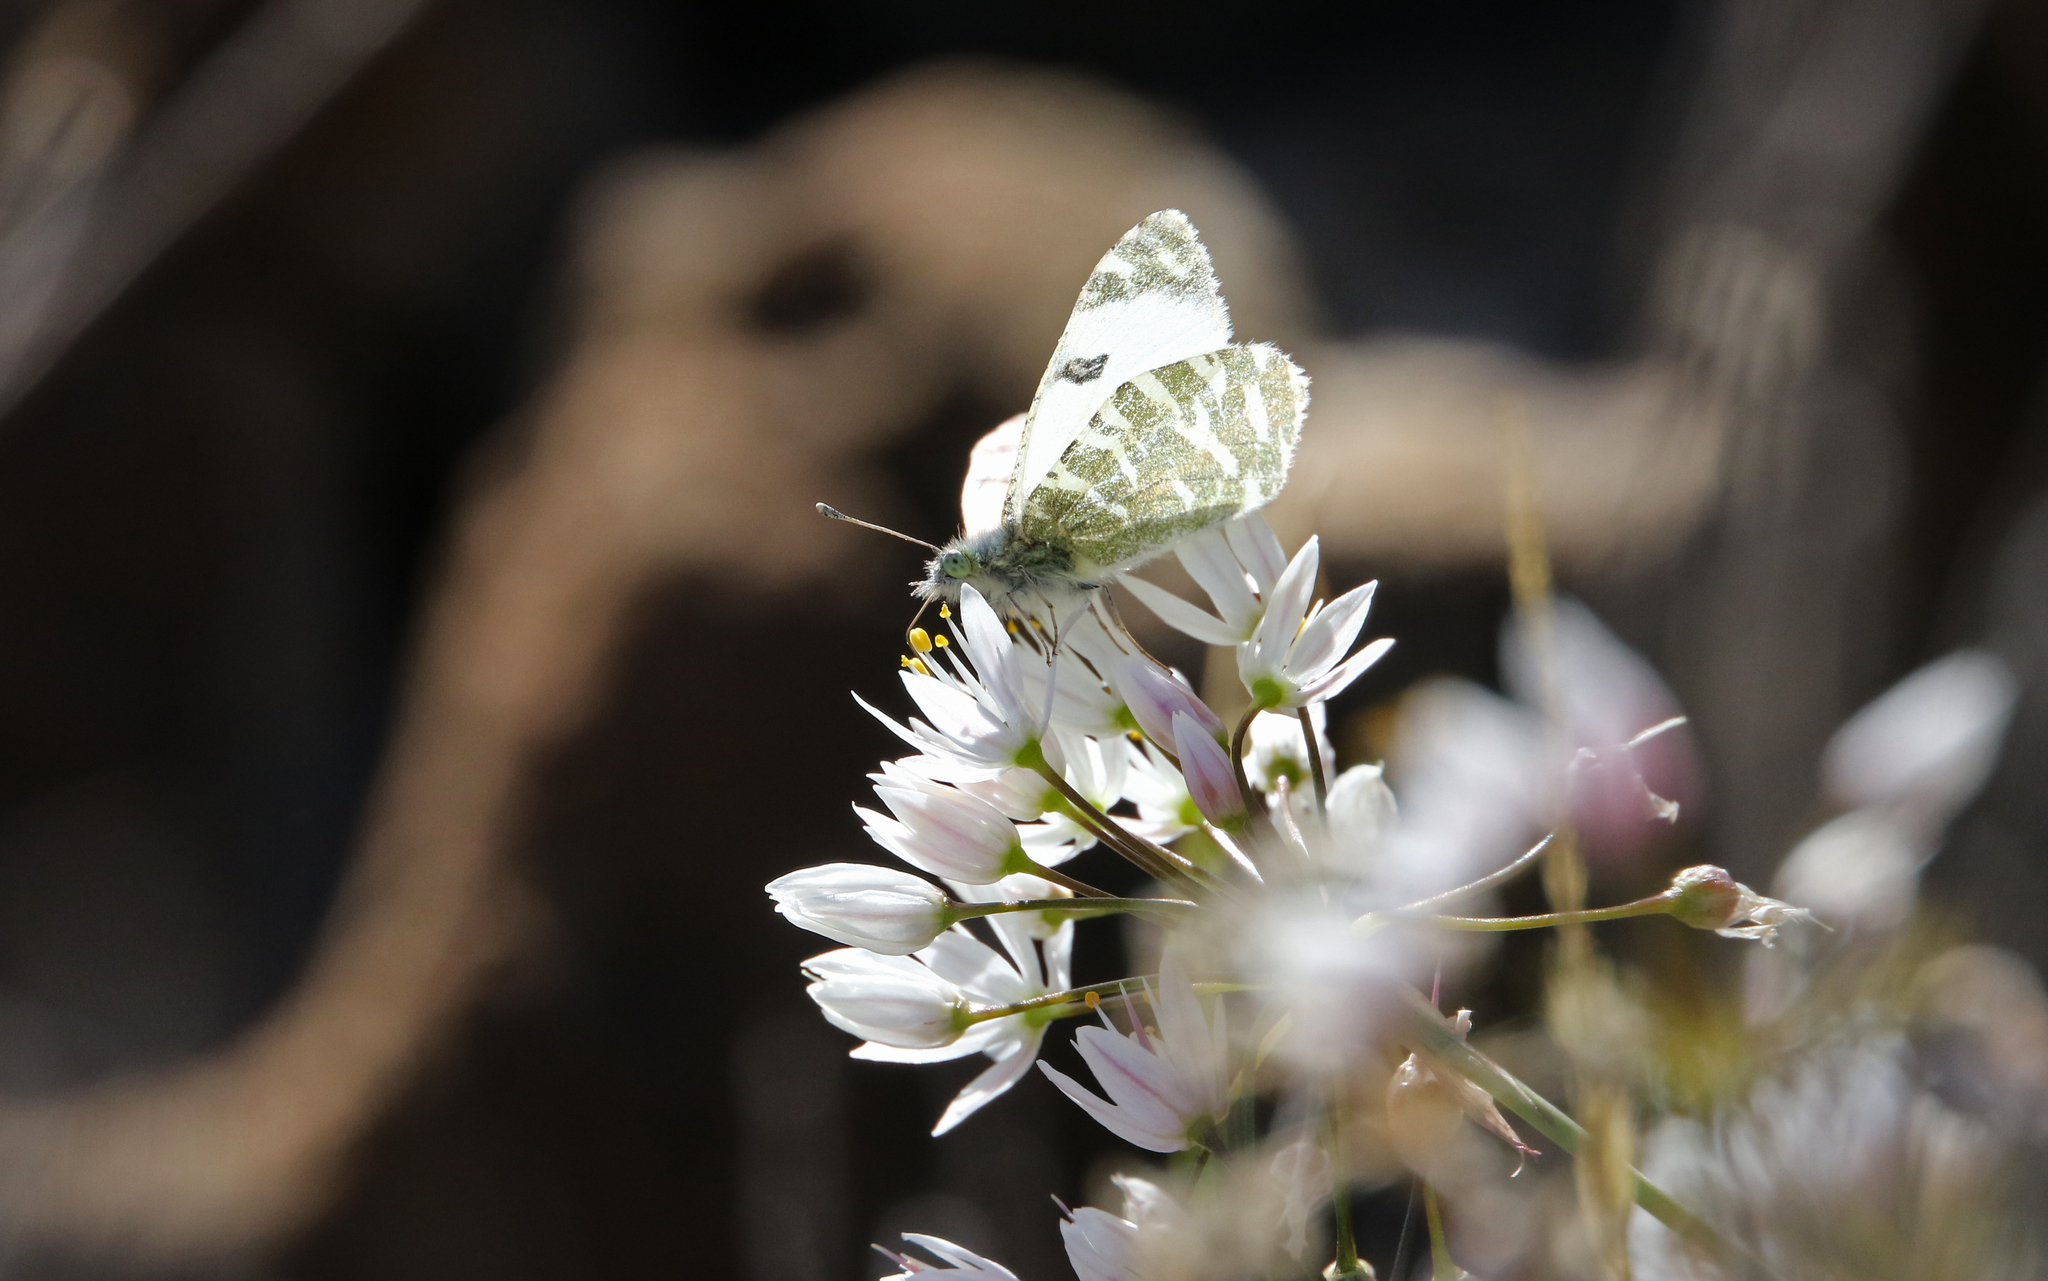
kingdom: Animalia
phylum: Arthropoda
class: Insecta
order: Lepidoptera
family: Pieridae
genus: Euchloe
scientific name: Euchloe grancanariensis
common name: Gran canaria green-striped white
